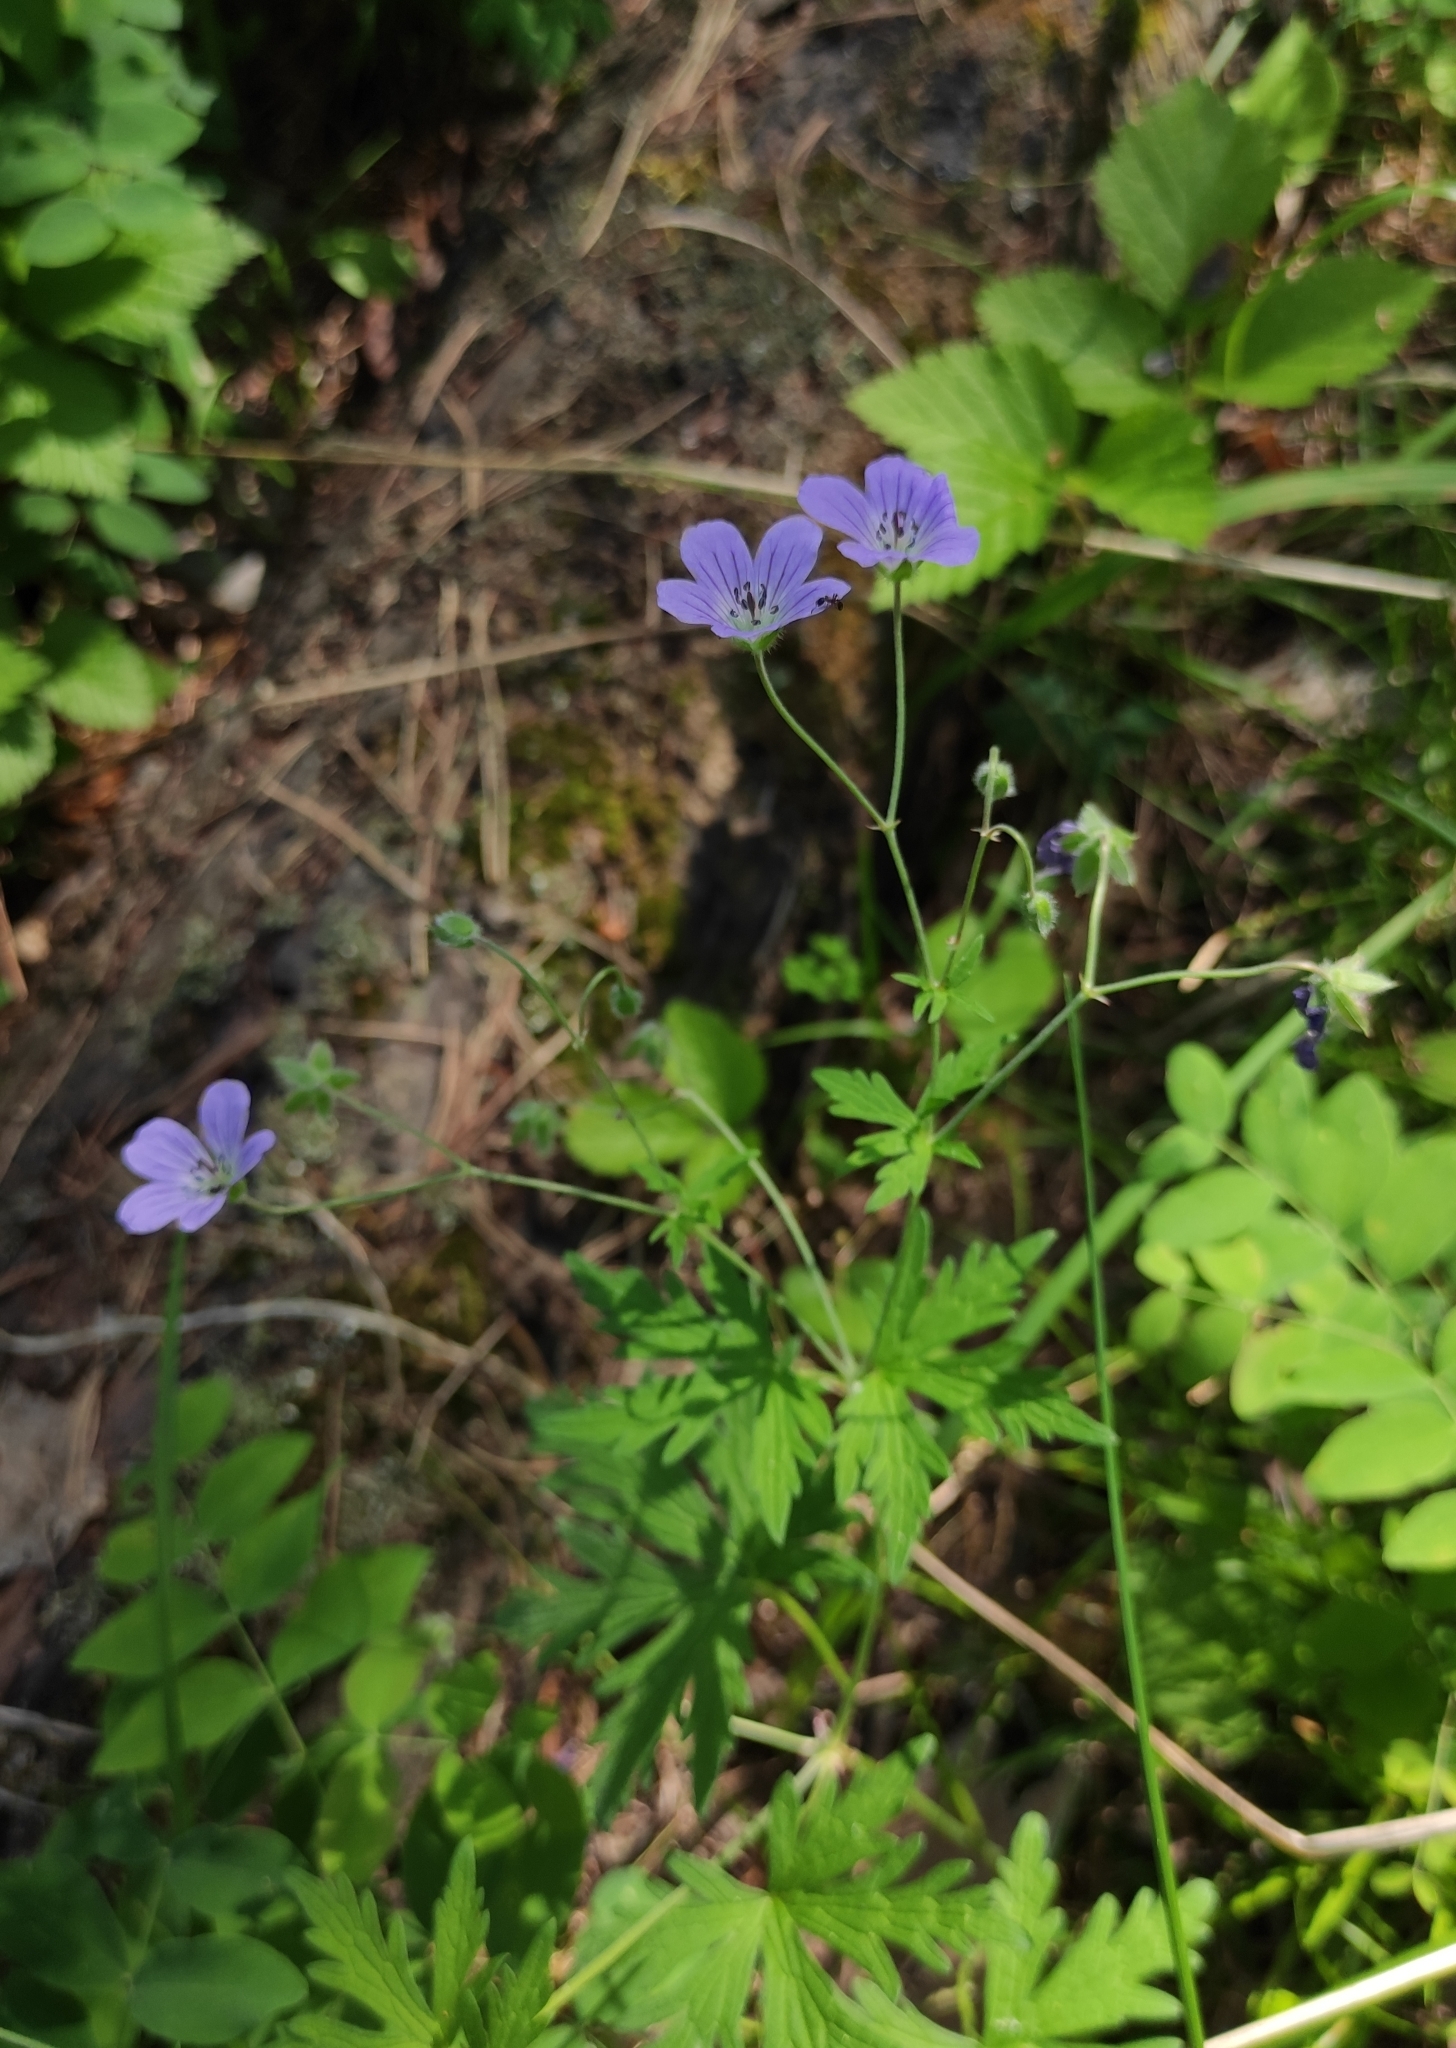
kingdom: Plantae
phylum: Tracheophyta
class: Magnoliopsida
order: Geraniales
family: Geraniaceae
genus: Geranium
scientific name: Geranium pseudosibiricum
